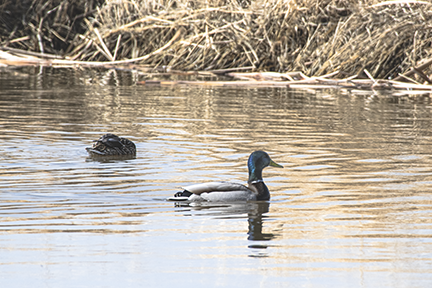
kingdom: Animalia
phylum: Chordata
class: Aves
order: Anseriformes
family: Anatidae
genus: Anas
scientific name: Anas platyrhynchos
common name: Mallard
